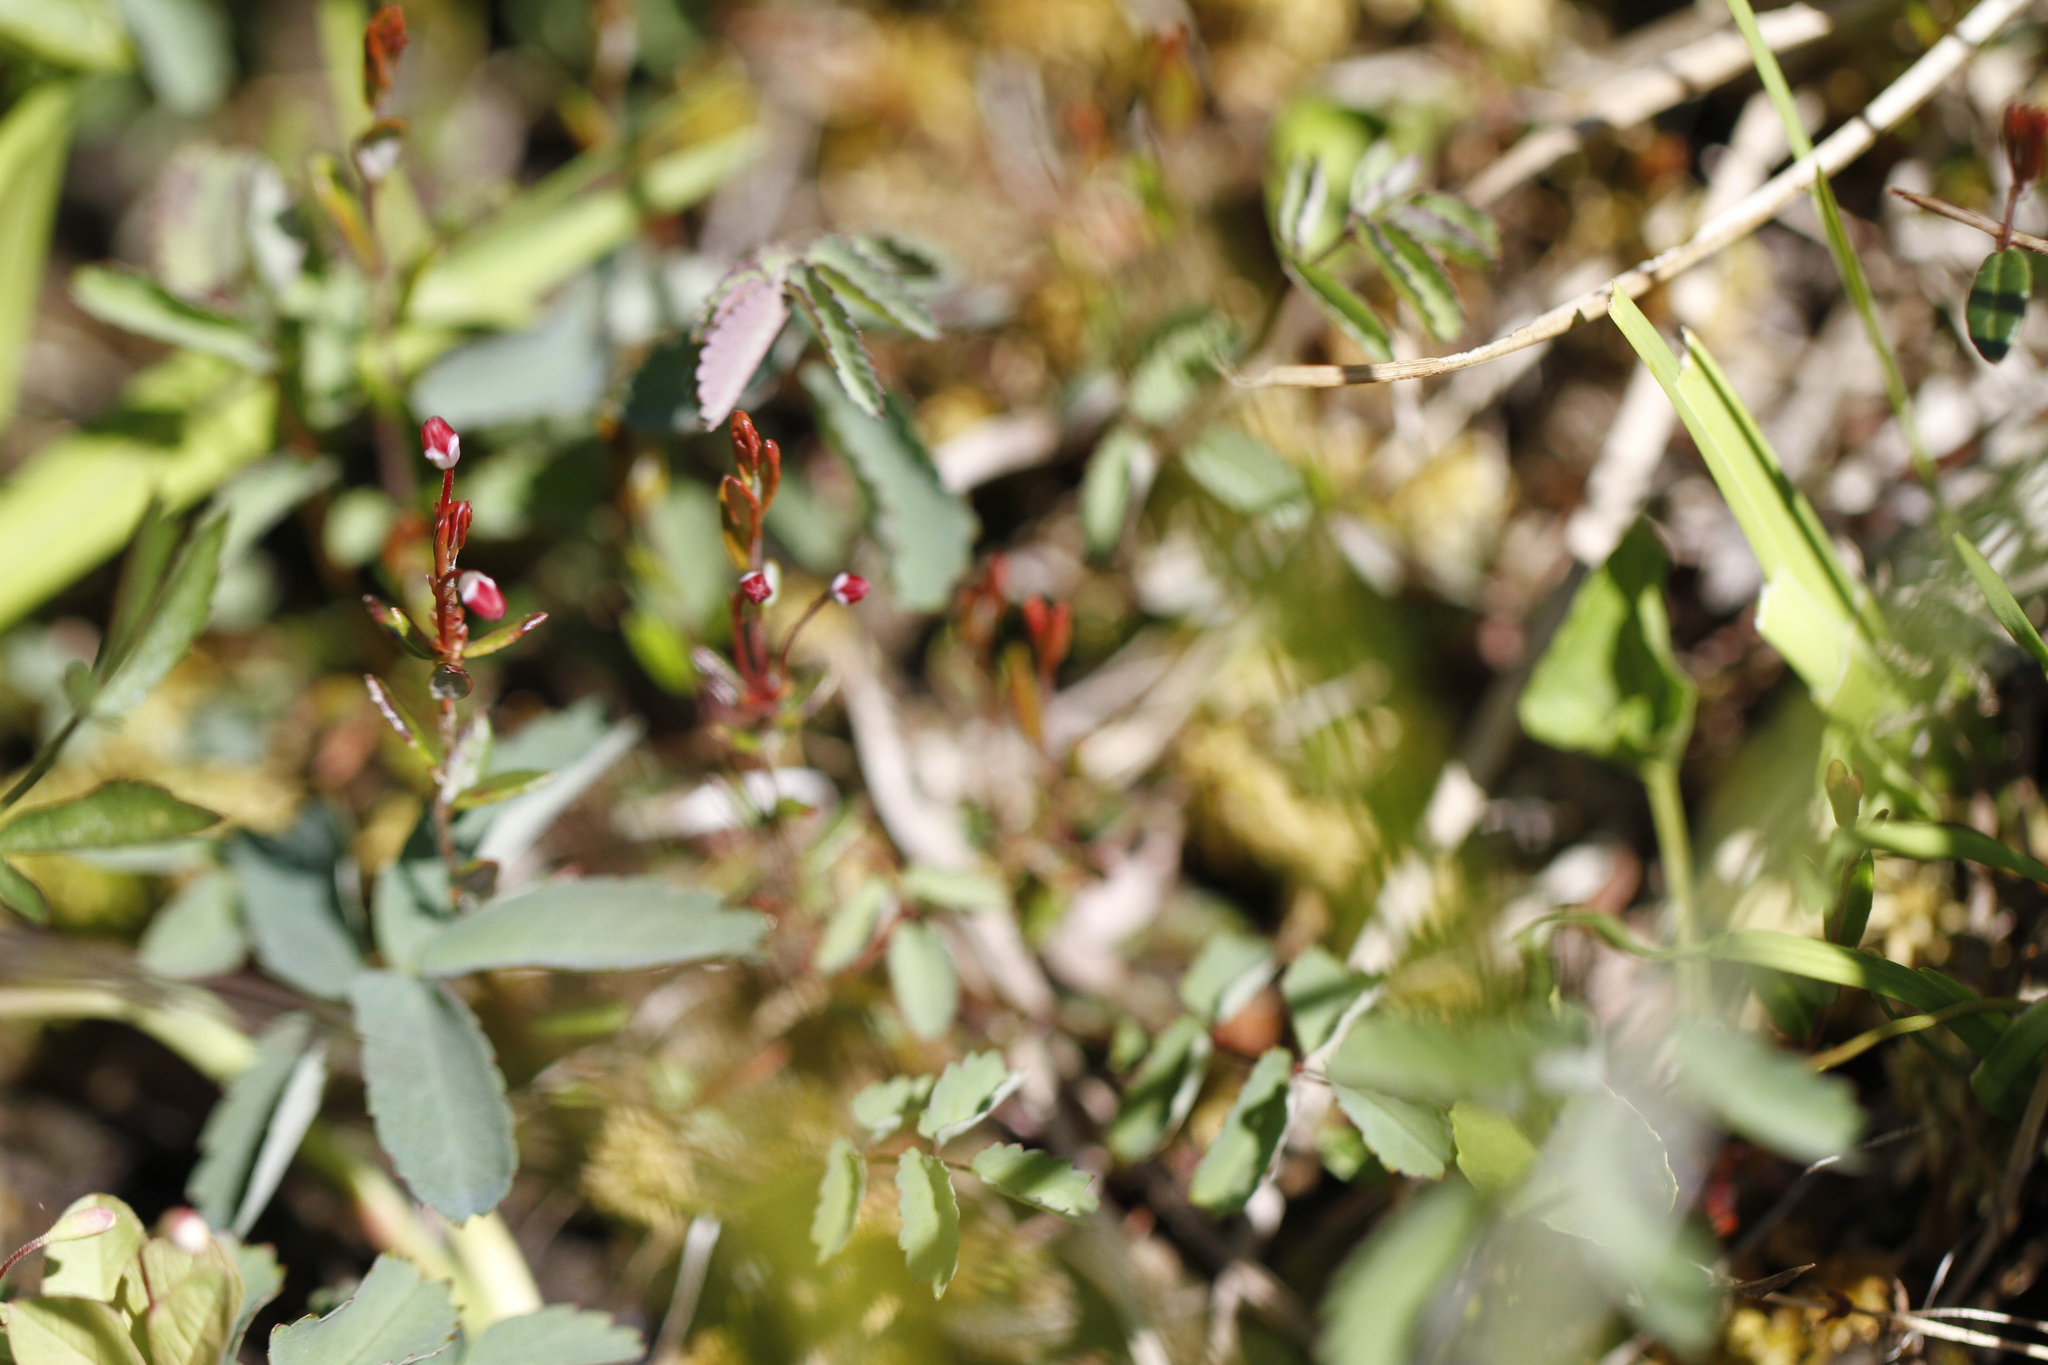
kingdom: Plantae
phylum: Tracheophyta
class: Magnoliopsida
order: Ericales
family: Ericaceae
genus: Vaccinium
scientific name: Vaccinium oxycoccos
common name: Cranberry
